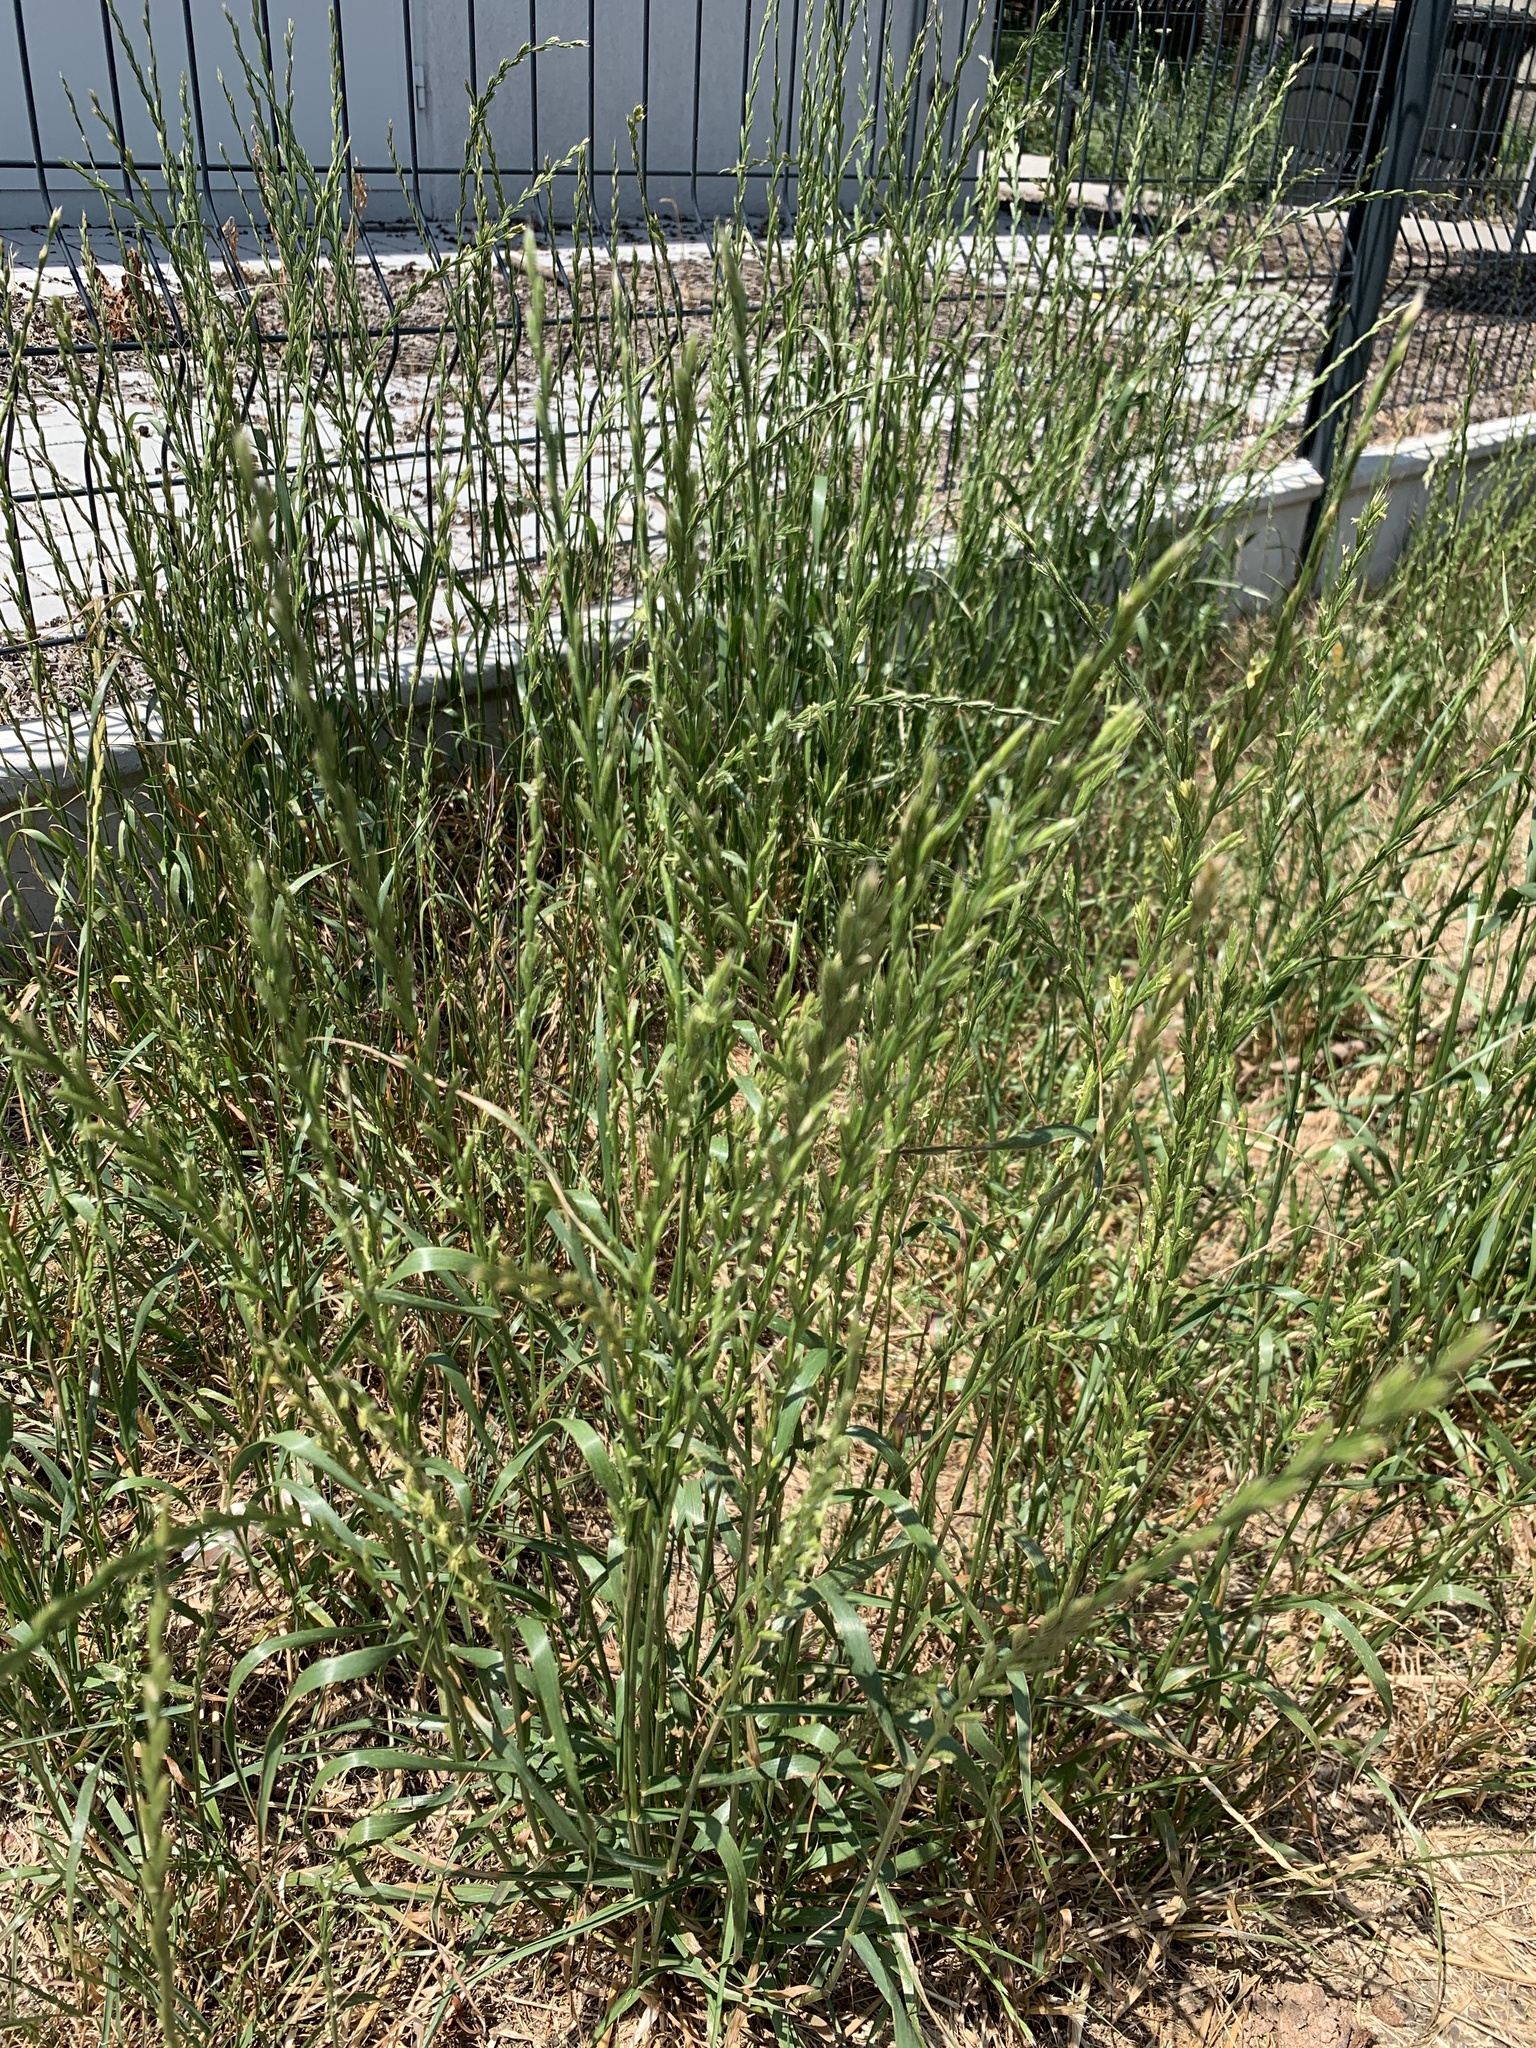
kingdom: Plantae
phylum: Tracheophyta
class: Liliopsida
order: Poales
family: Poaceae
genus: Lolium
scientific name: Lolium multiflorum
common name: Annual ryegrass
